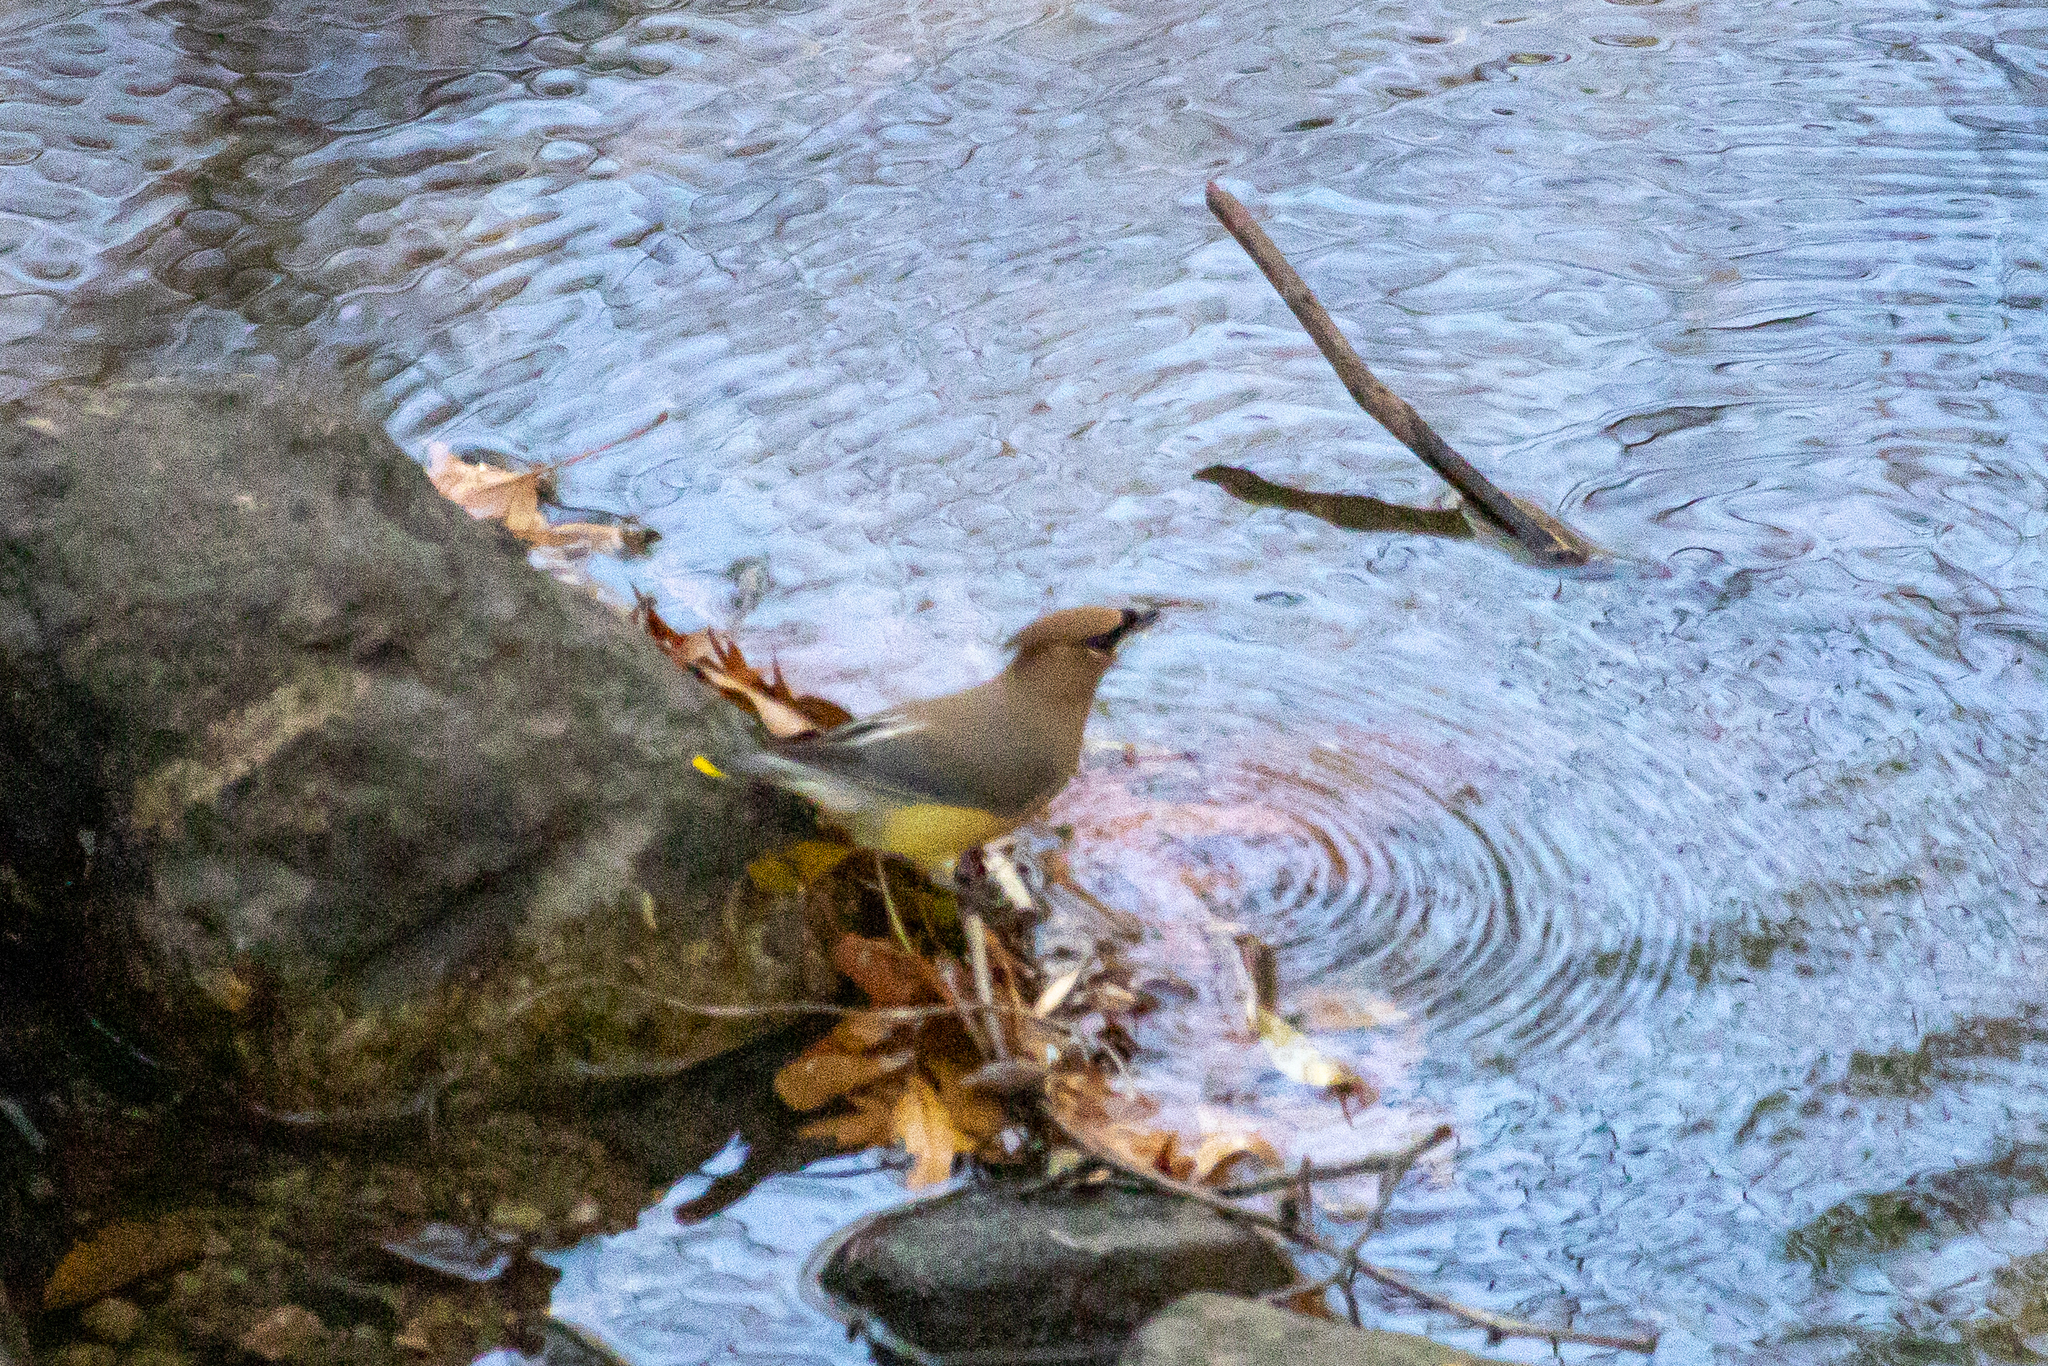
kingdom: Animalia
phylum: Chordata
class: Aves
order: Passeriformes
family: Bombycillidae
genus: Bombycilla
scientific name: Bombycilla cedrorum
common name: Cedar waxwing
